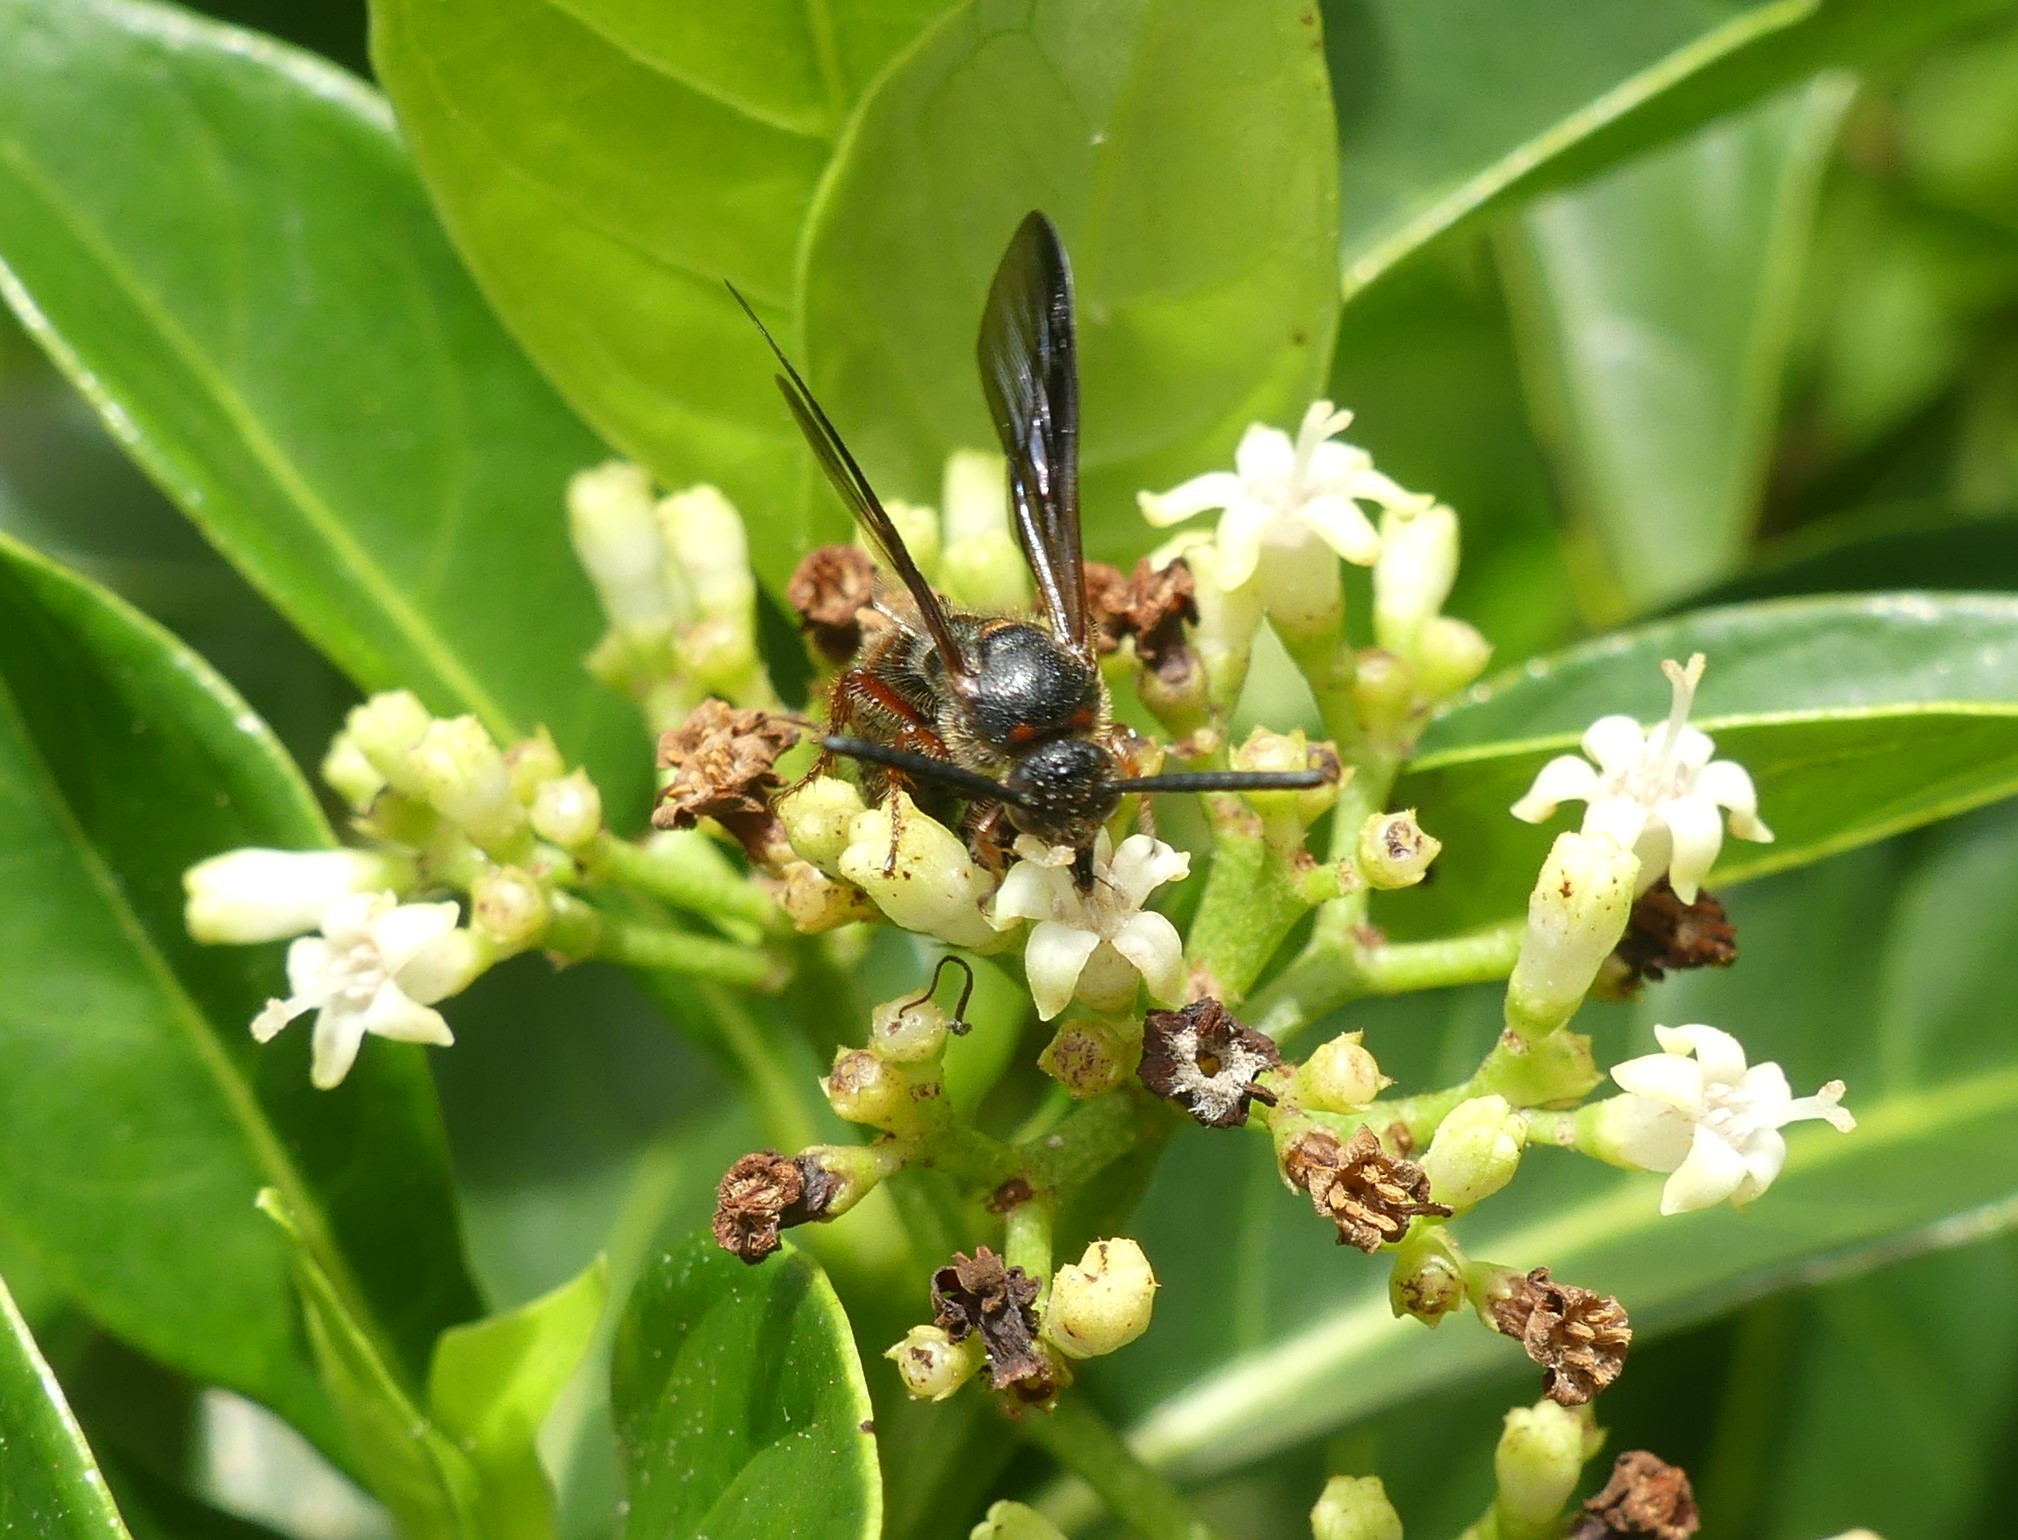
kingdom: Animalia
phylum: Arthropoda
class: Insecta
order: Hymenoptera
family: Scoliidae
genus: Scolia
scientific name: Scolia nobilitata
